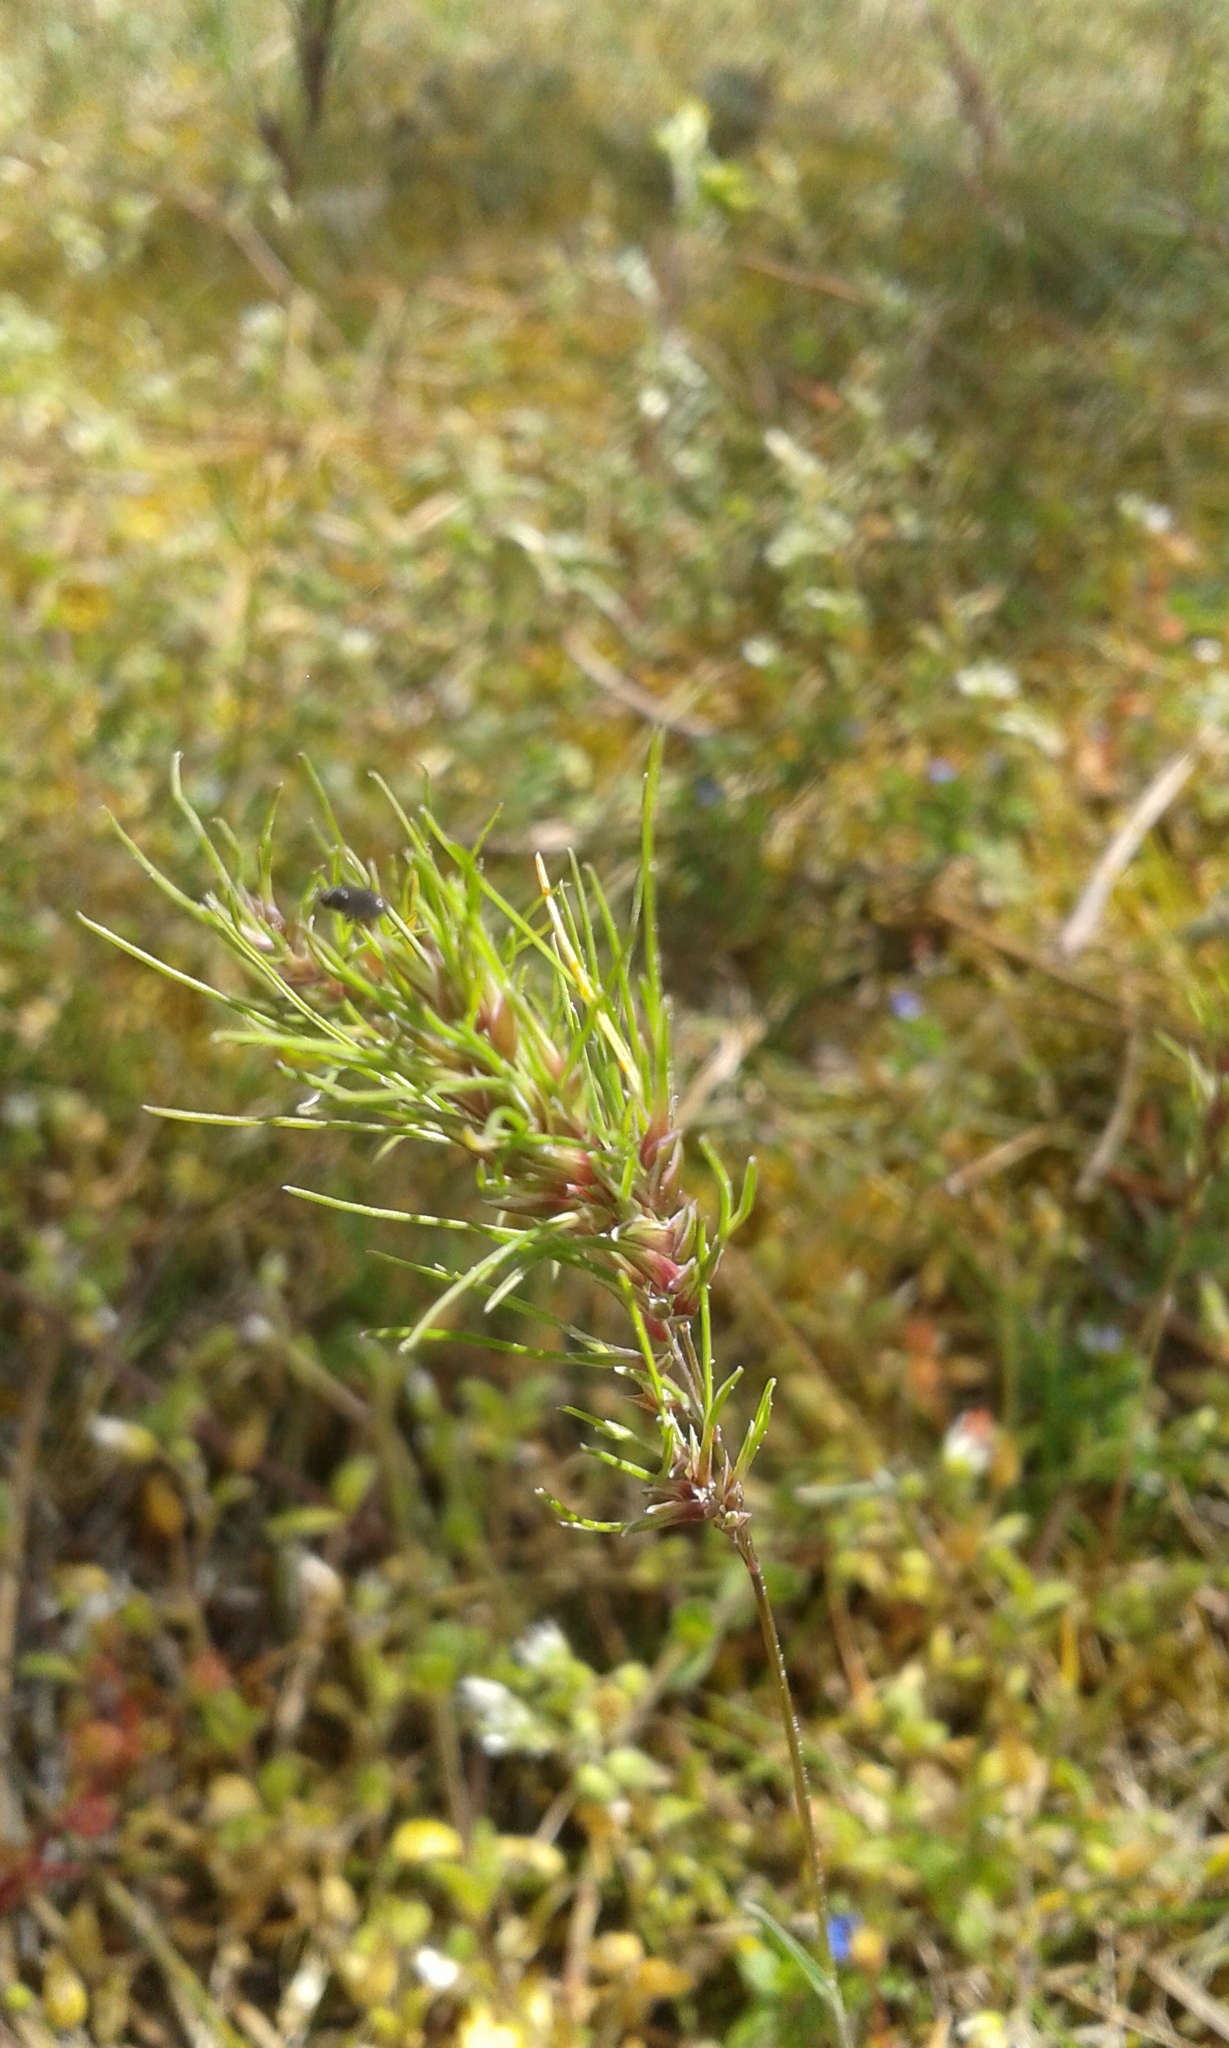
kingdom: Plantae
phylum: Tracheophyta
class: Liliopsida
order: Poales
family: Poaceae
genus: Poa
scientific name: Poa bulbosa
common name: Bulbous bluegrass
